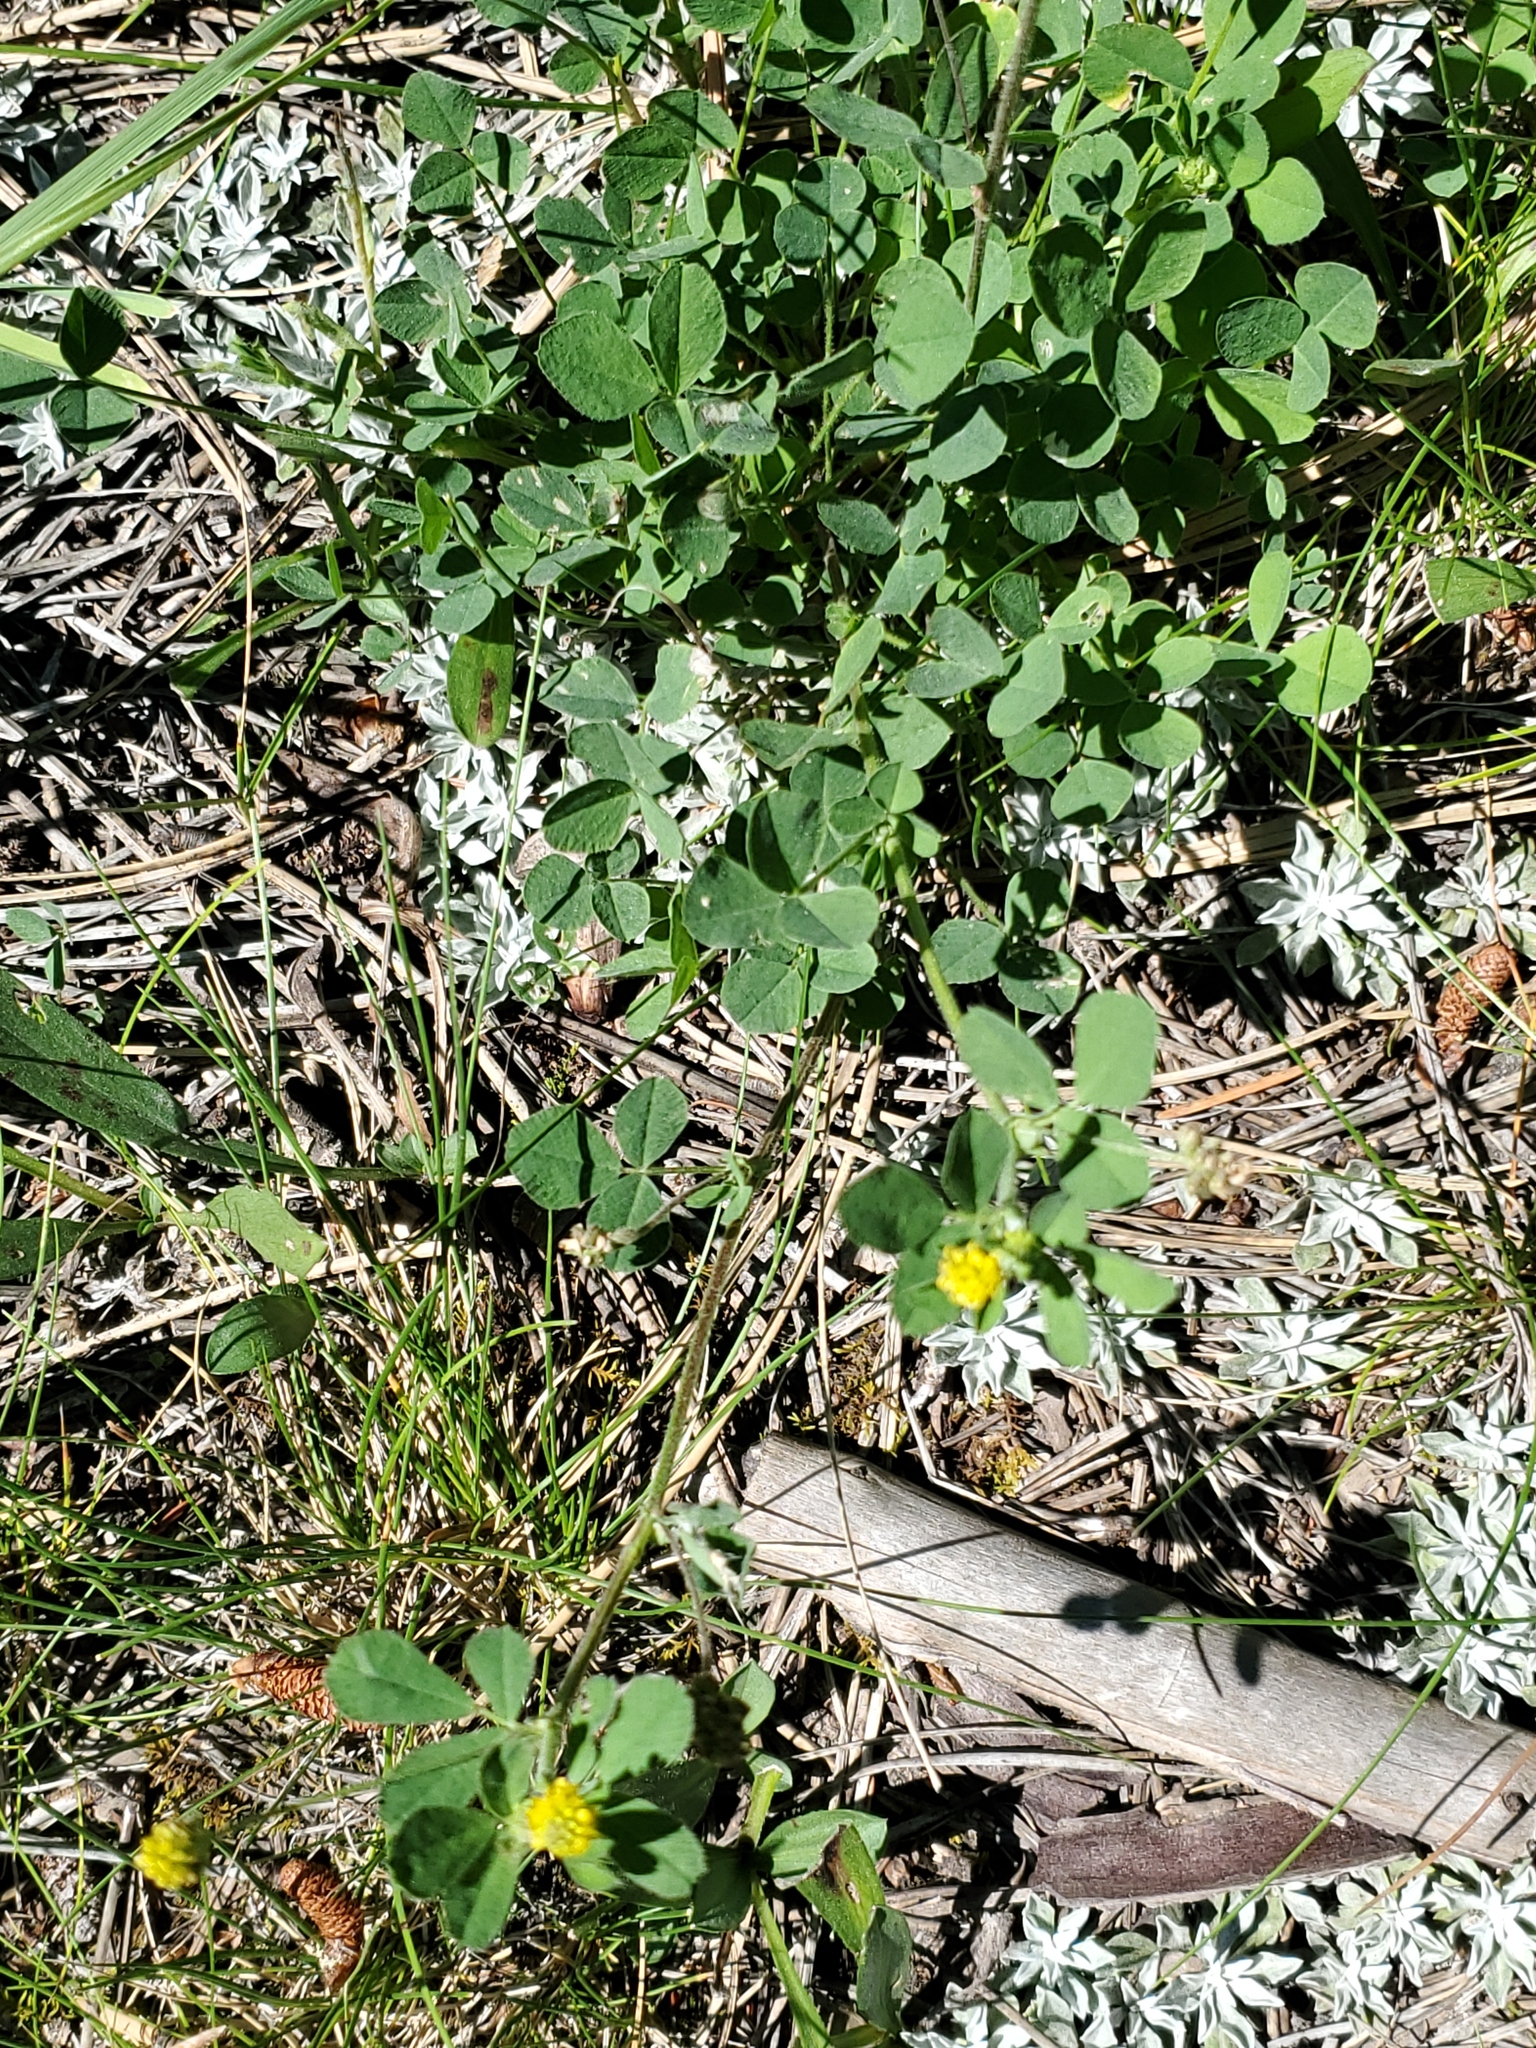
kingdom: Plantae
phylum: Tracheophyta
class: Magnoliopsida
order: Fabales
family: Fabaceae
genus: Medicago
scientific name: Medicago lupulina
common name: Black medick
